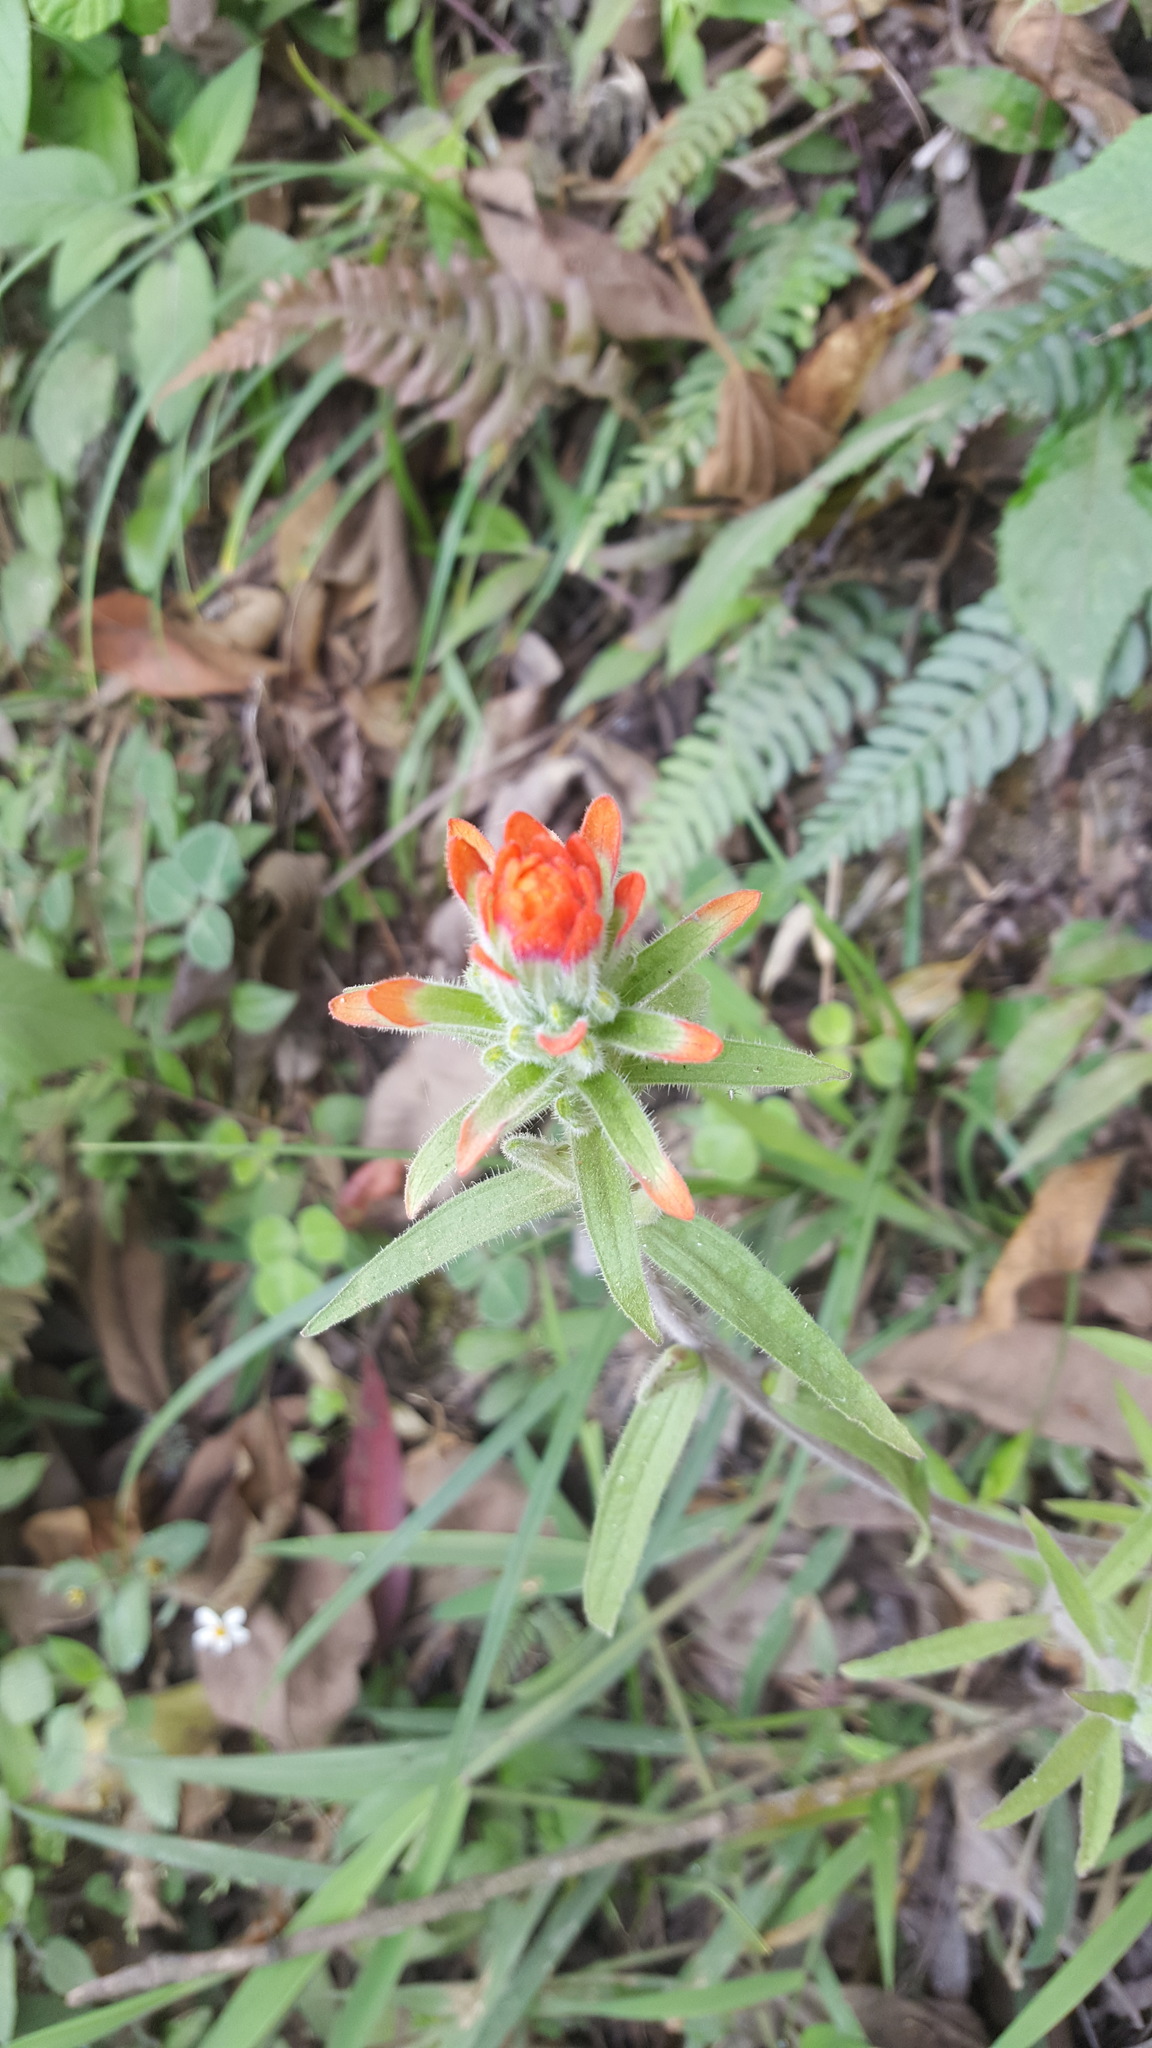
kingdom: Plantae
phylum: Tracheophyta
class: Magnoliopsida
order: Lamiales
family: Orobanchaceae
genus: Castilleja
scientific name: Castilleja arvensis
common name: Indian paintbrush
